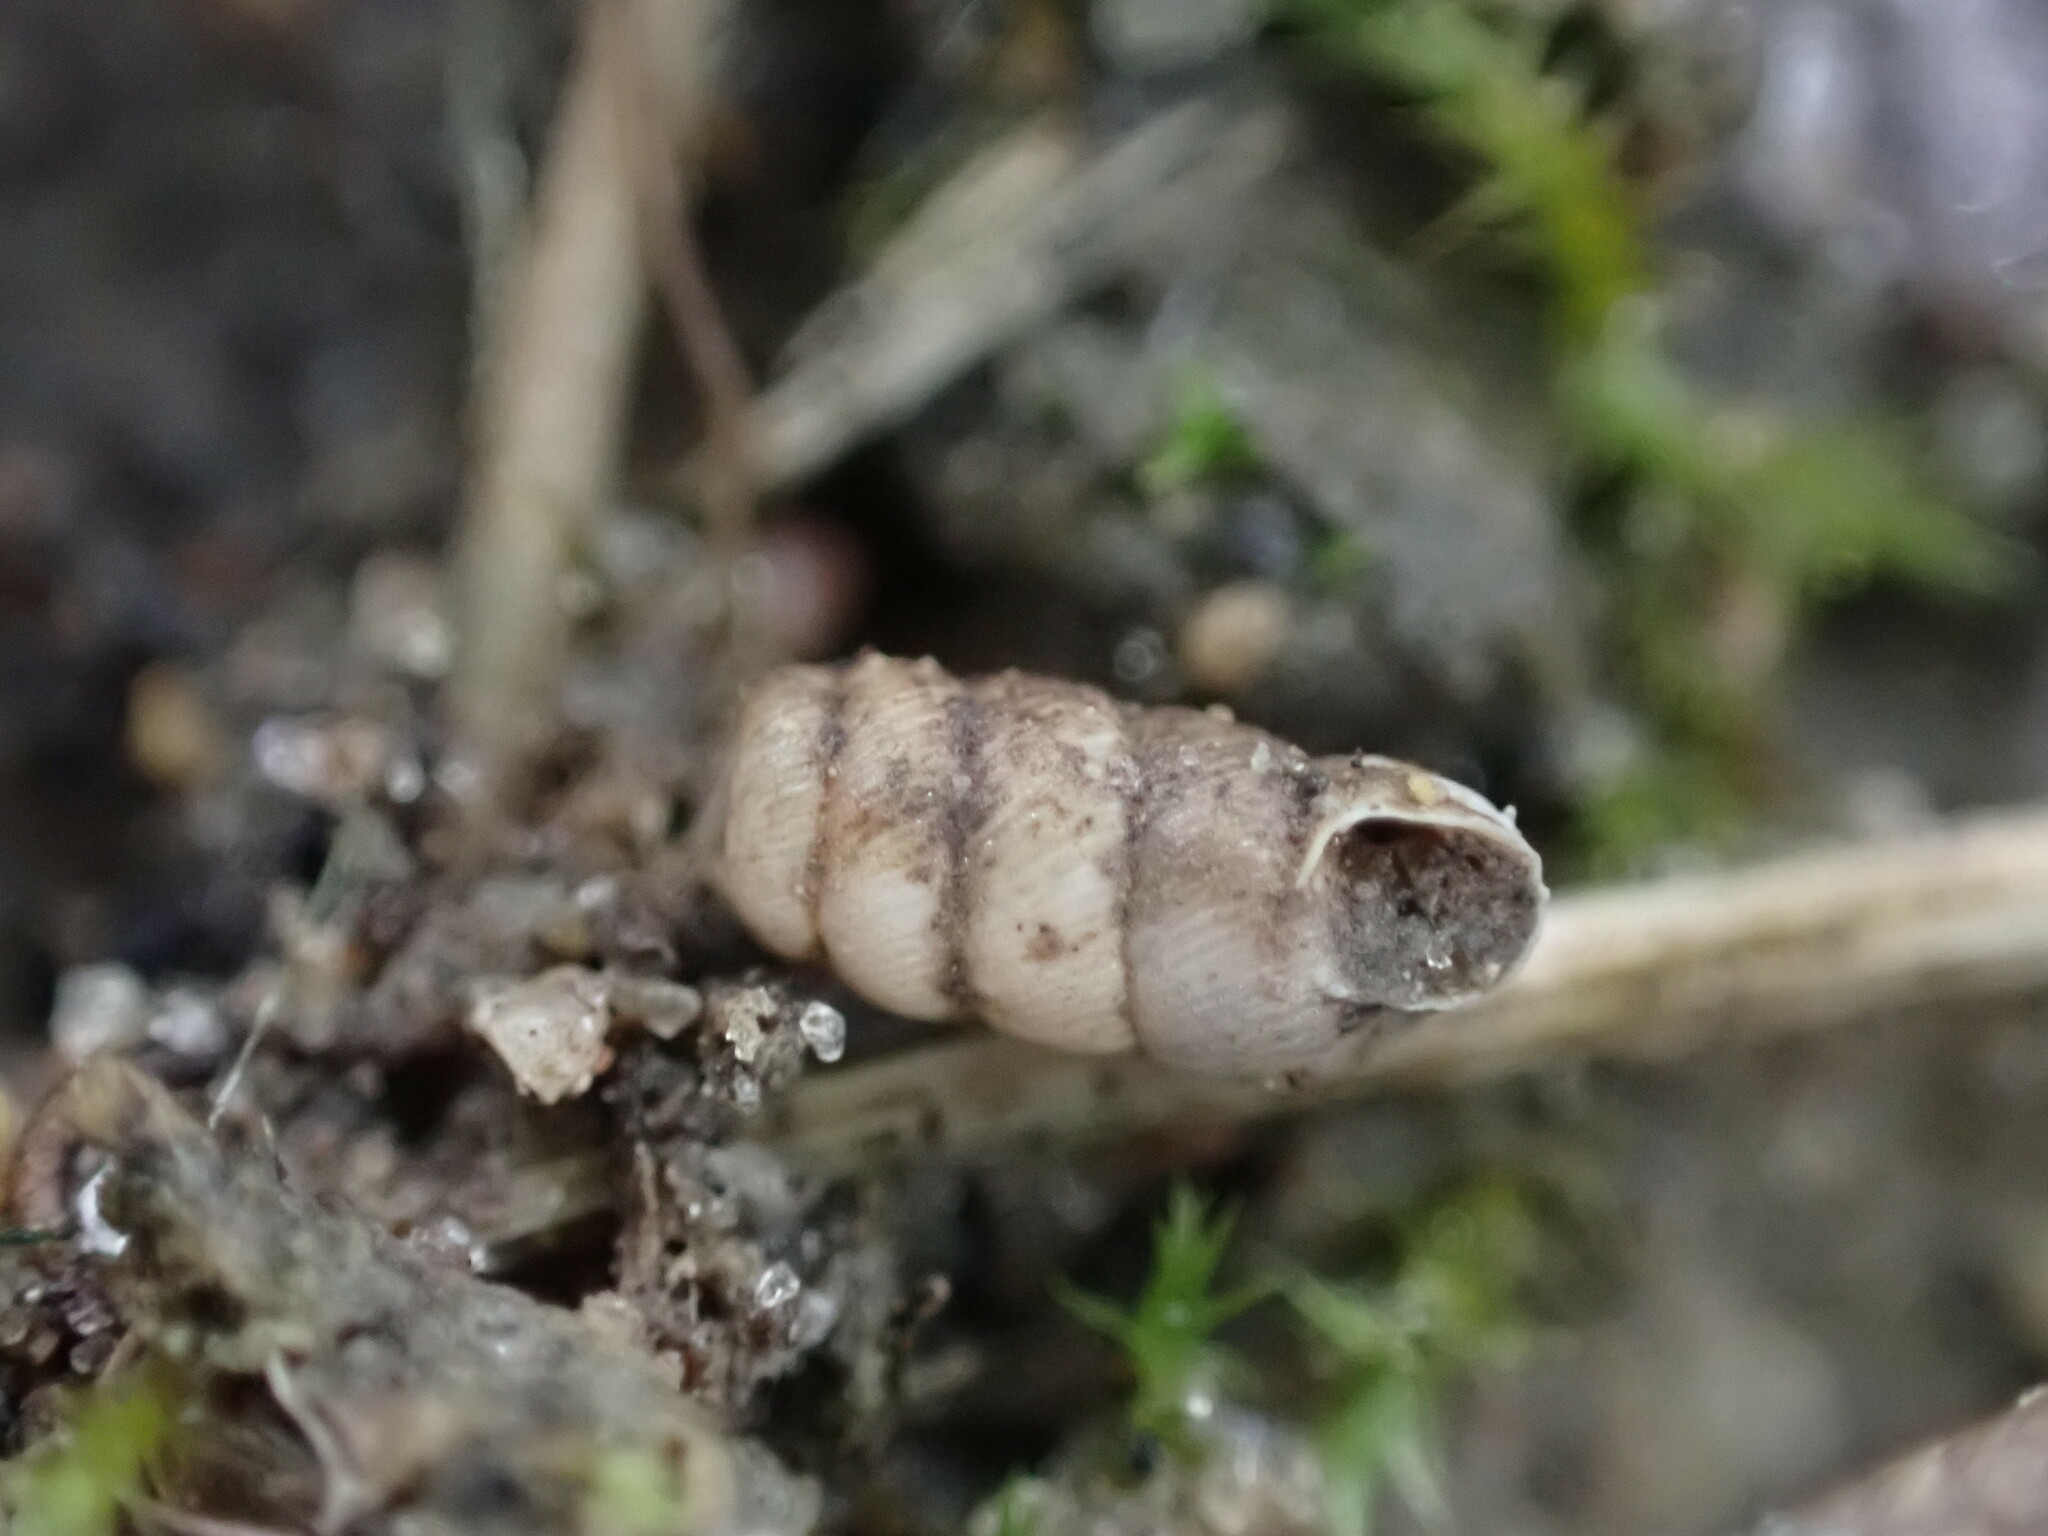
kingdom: Animalia
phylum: Mollusca
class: Gastropoda
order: Stylommatophora
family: Chondrinidae
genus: Granopupa
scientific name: Granopupa granum
